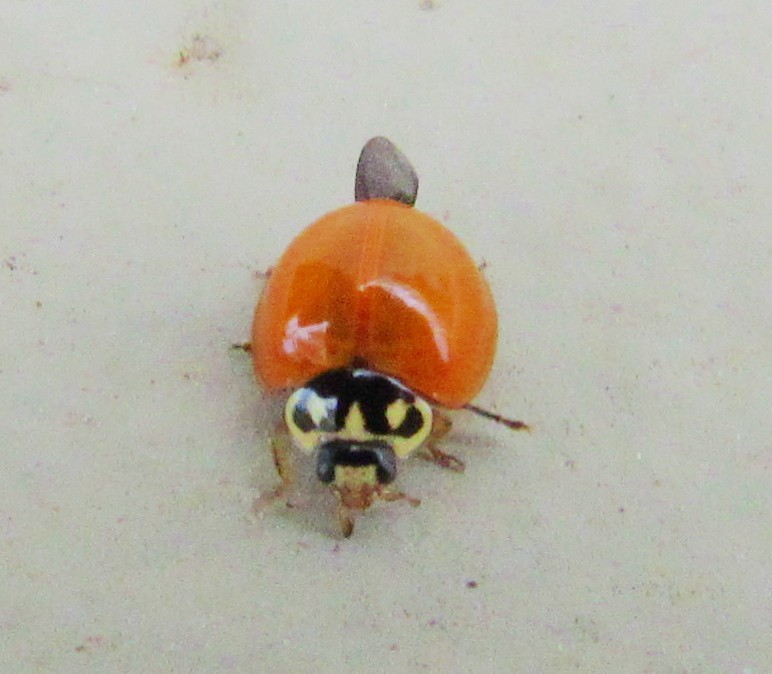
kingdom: Animalia
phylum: Arthropoda
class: Insecta
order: Coleoptera
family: Coccinellidae
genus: Cycloneda
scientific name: Cycloneda sanguinea
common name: Ladybird beetle
